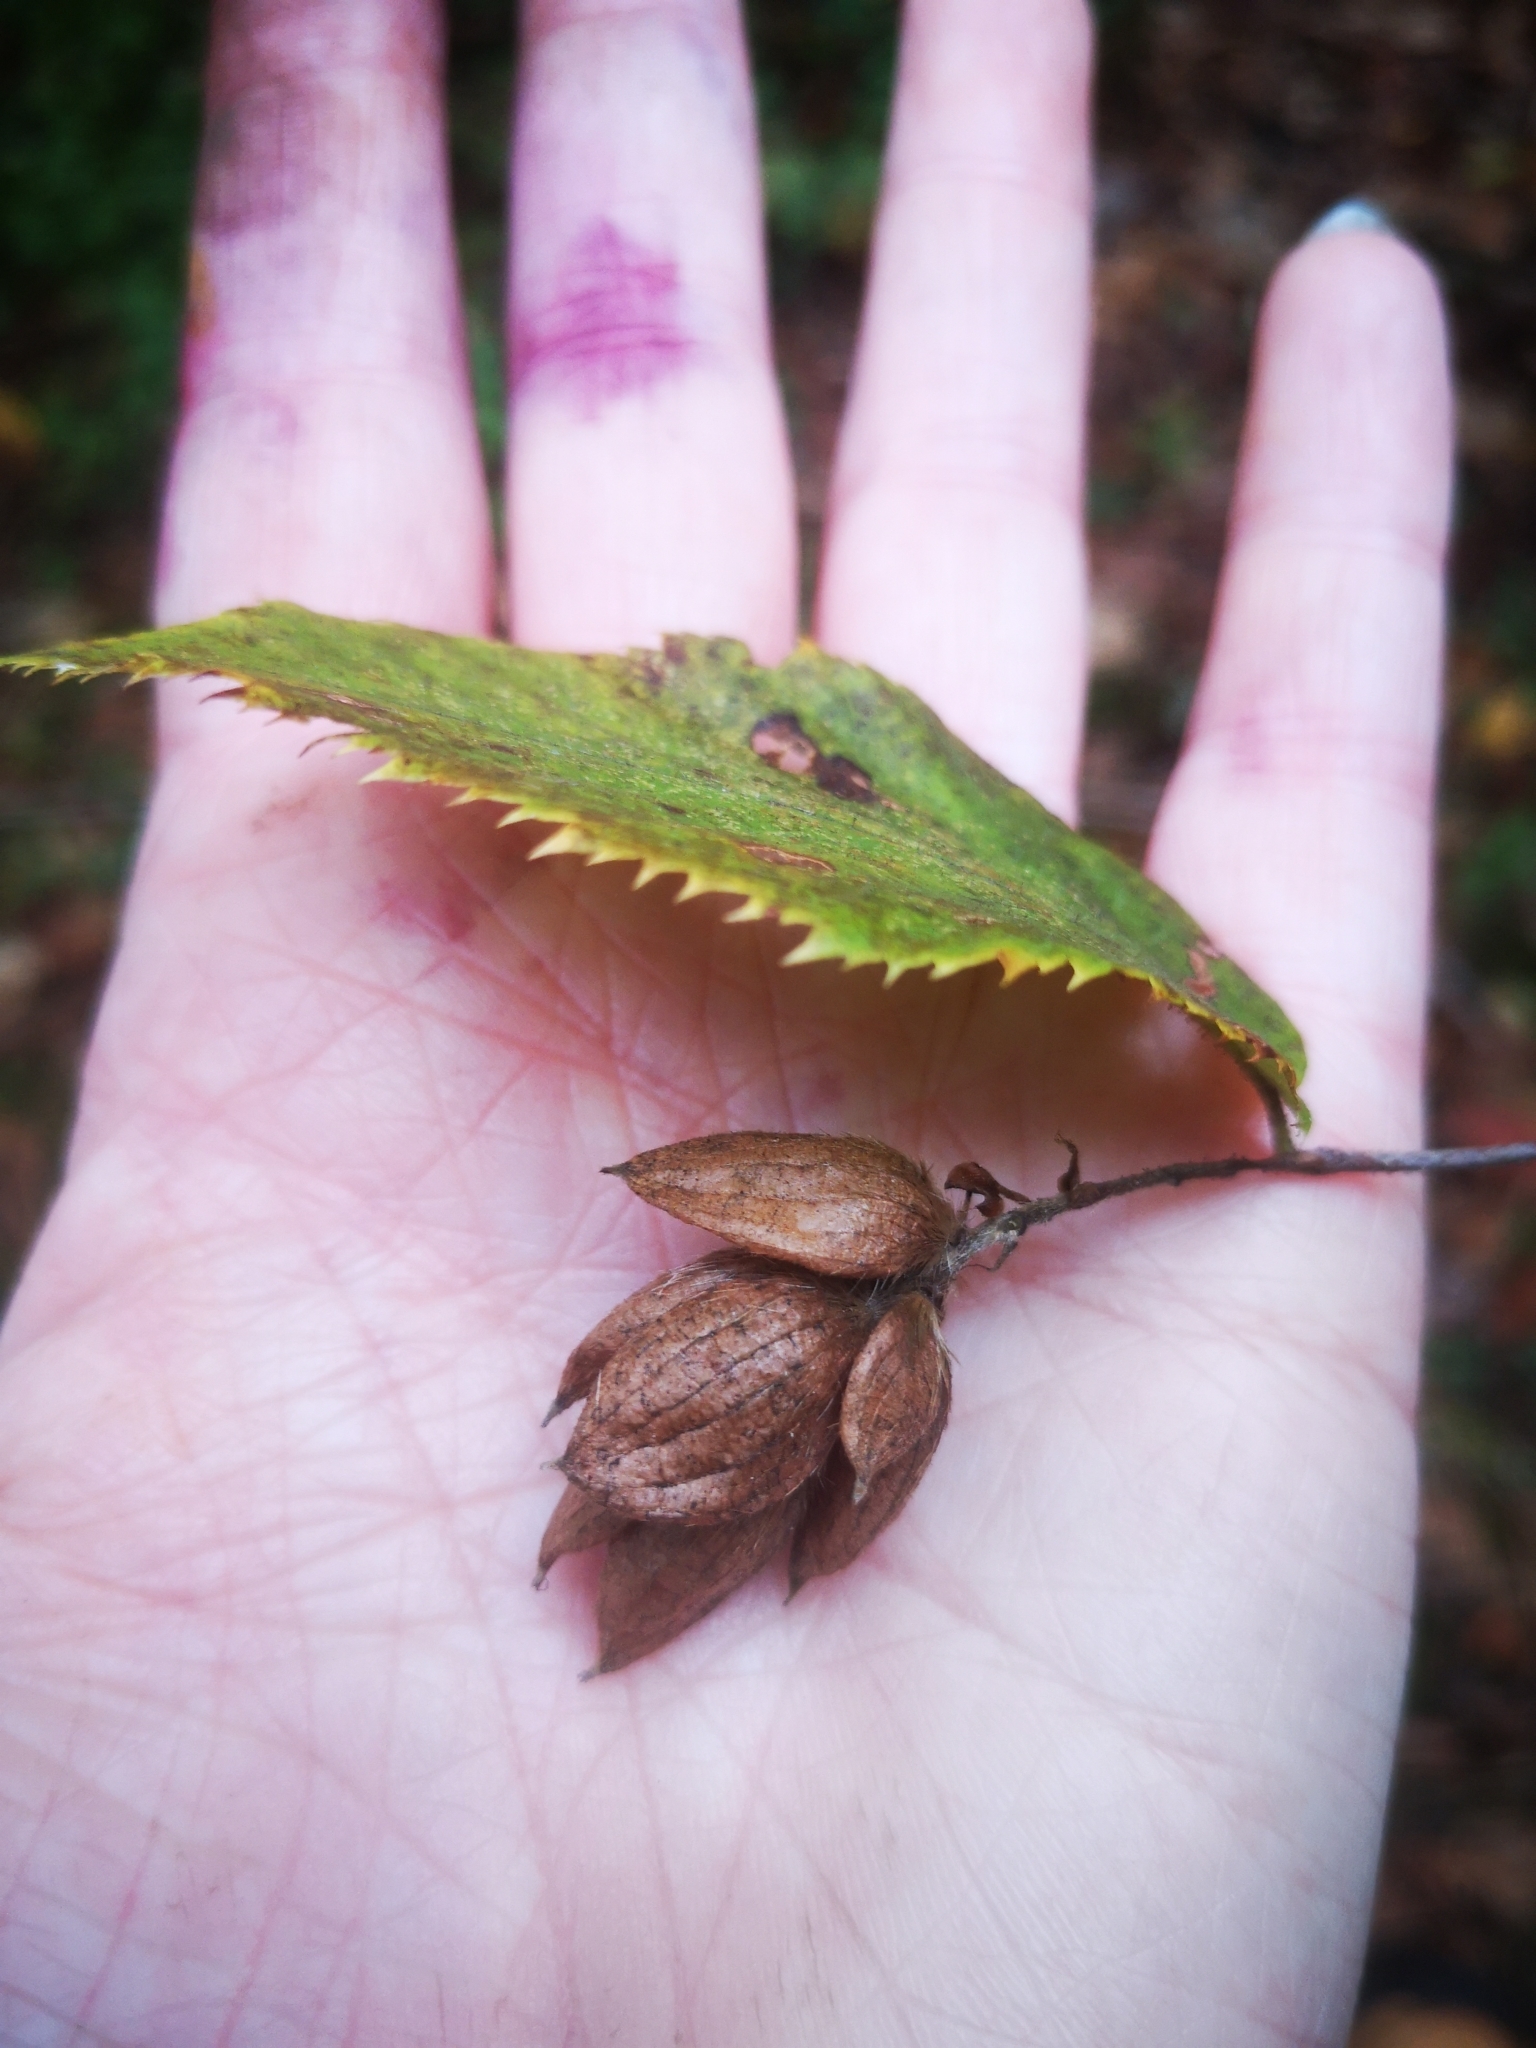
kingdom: Plantae
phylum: Tracheophyta
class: Magnoliopsida
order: Fagales
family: Betulaceae
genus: Ostrya
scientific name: Ostrya virginiana
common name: Ironwood
